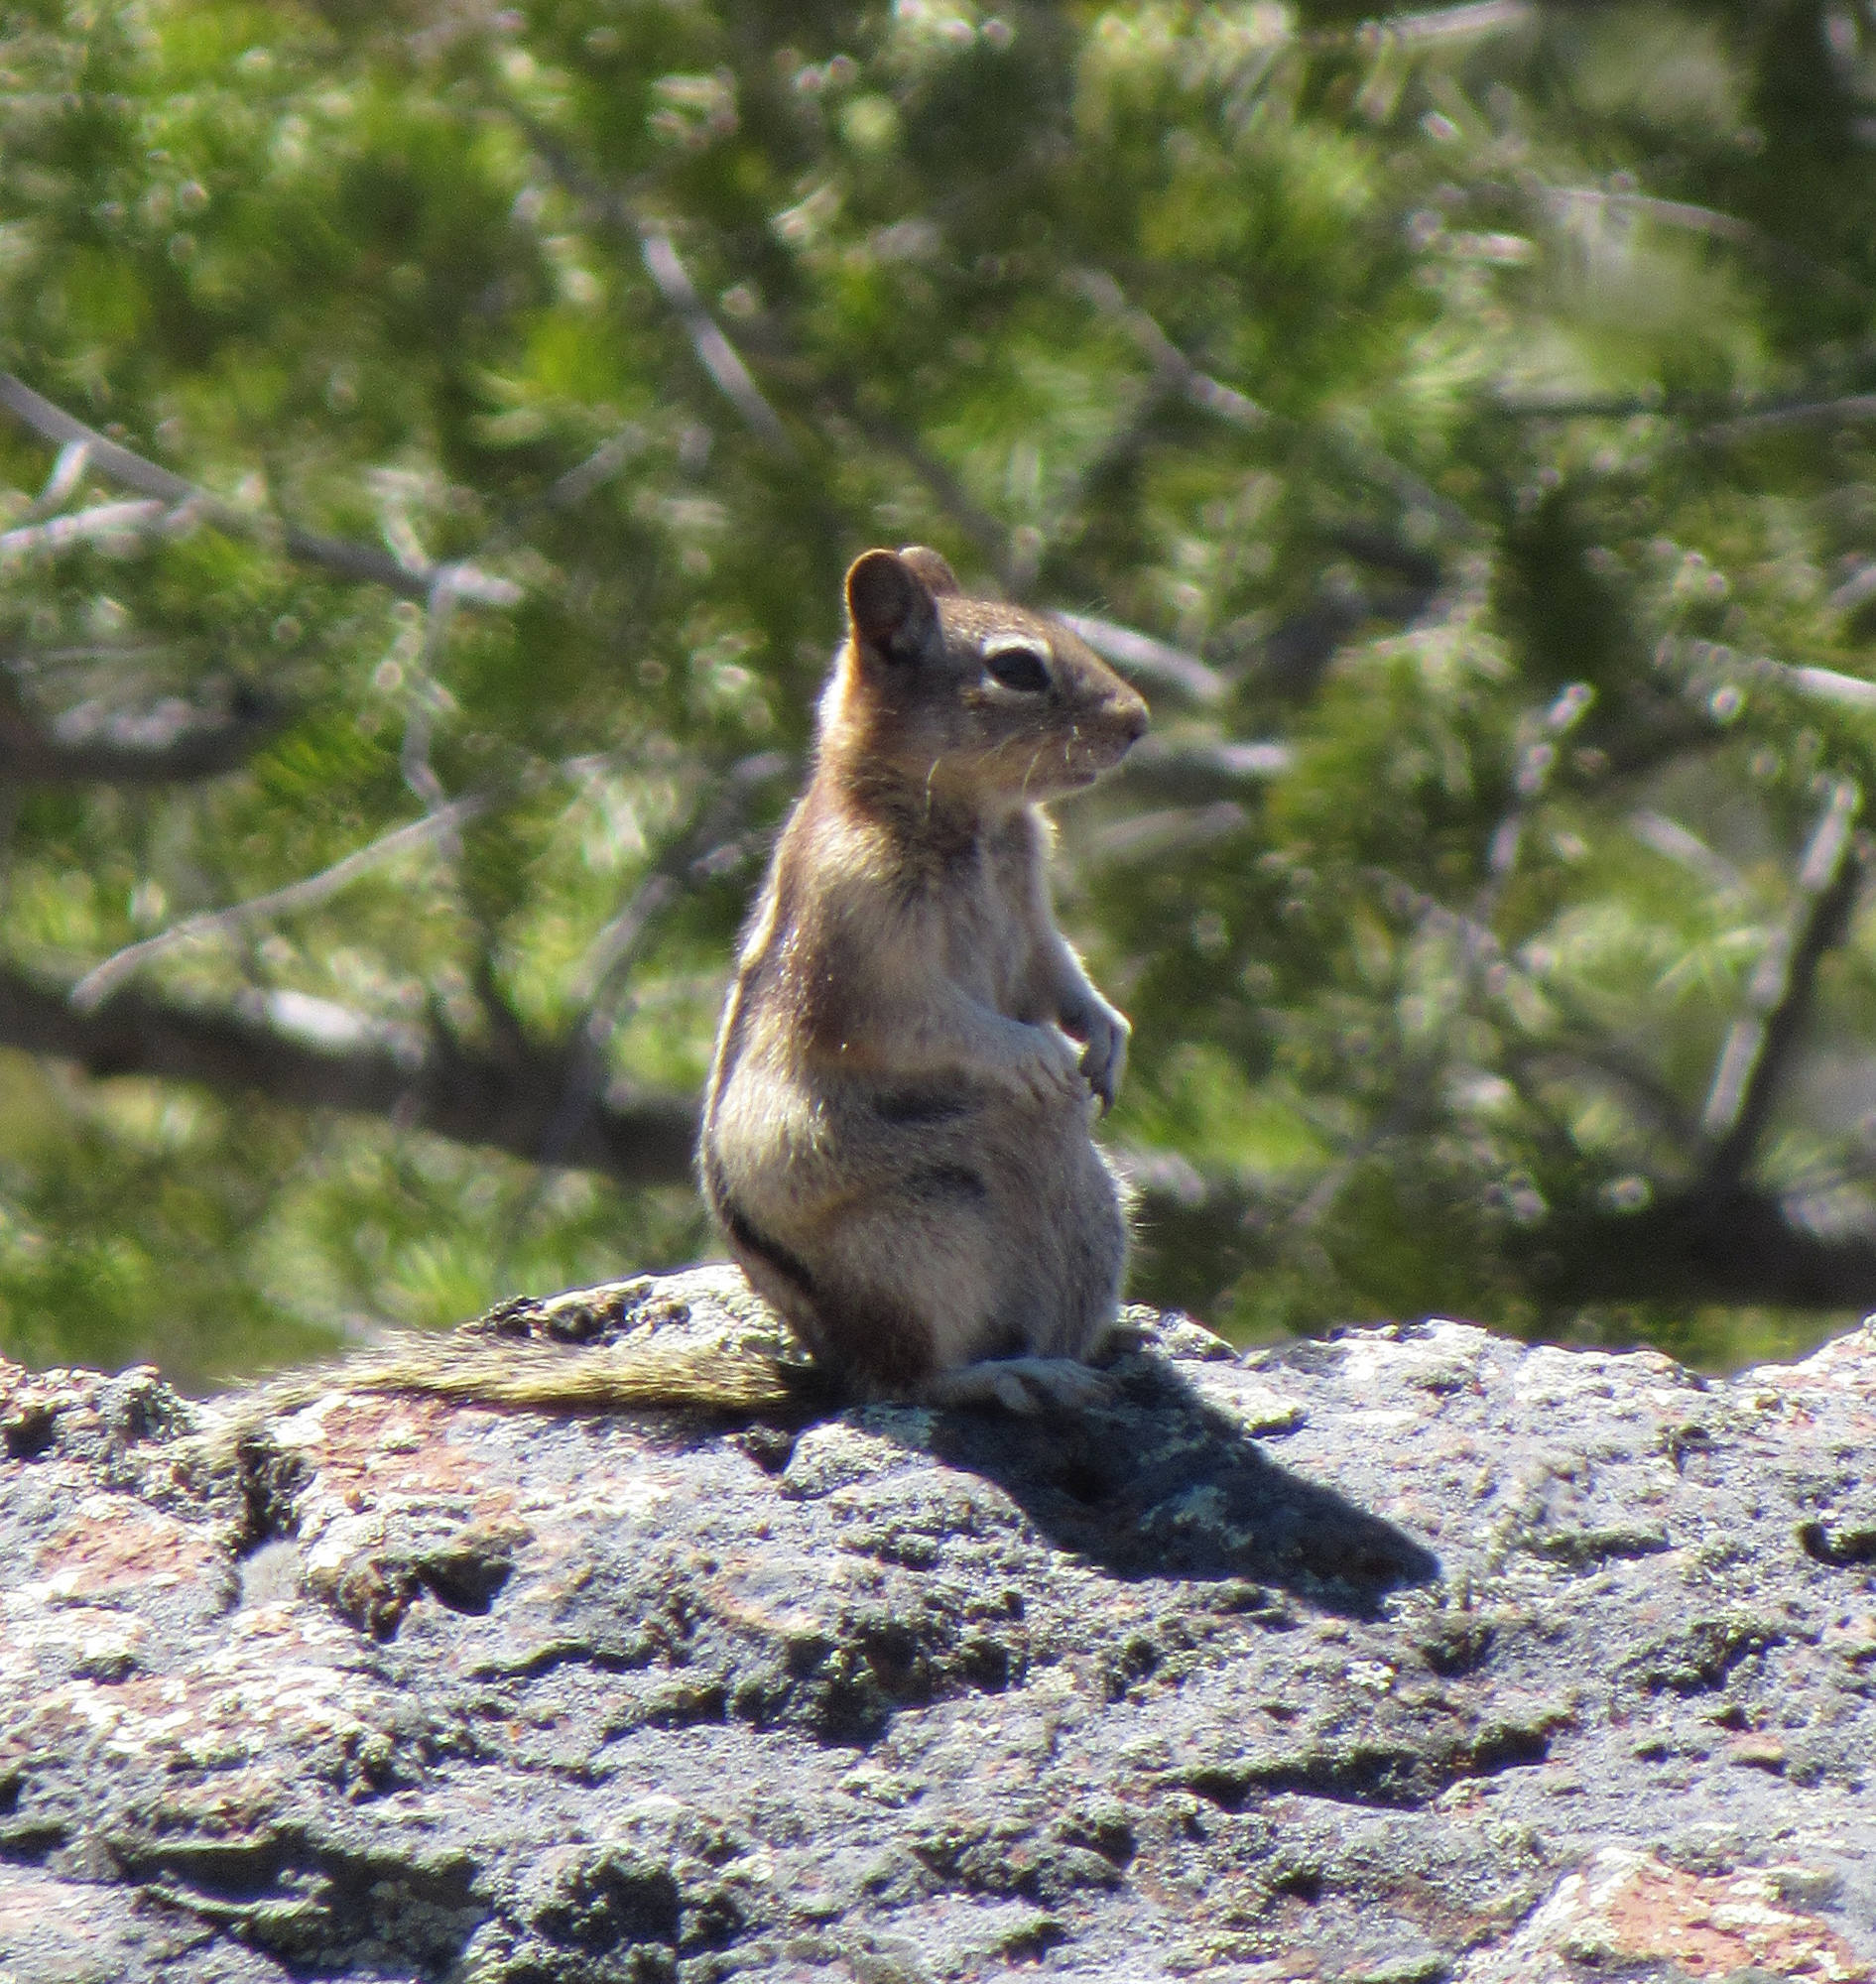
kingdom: Animalia
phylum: Chordata
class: Mammalia
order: Rodentia
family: Sciuridae
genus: Callospermophilus
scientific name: Callospermophilus lateralis
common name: Golden-mantled ground squirrel
